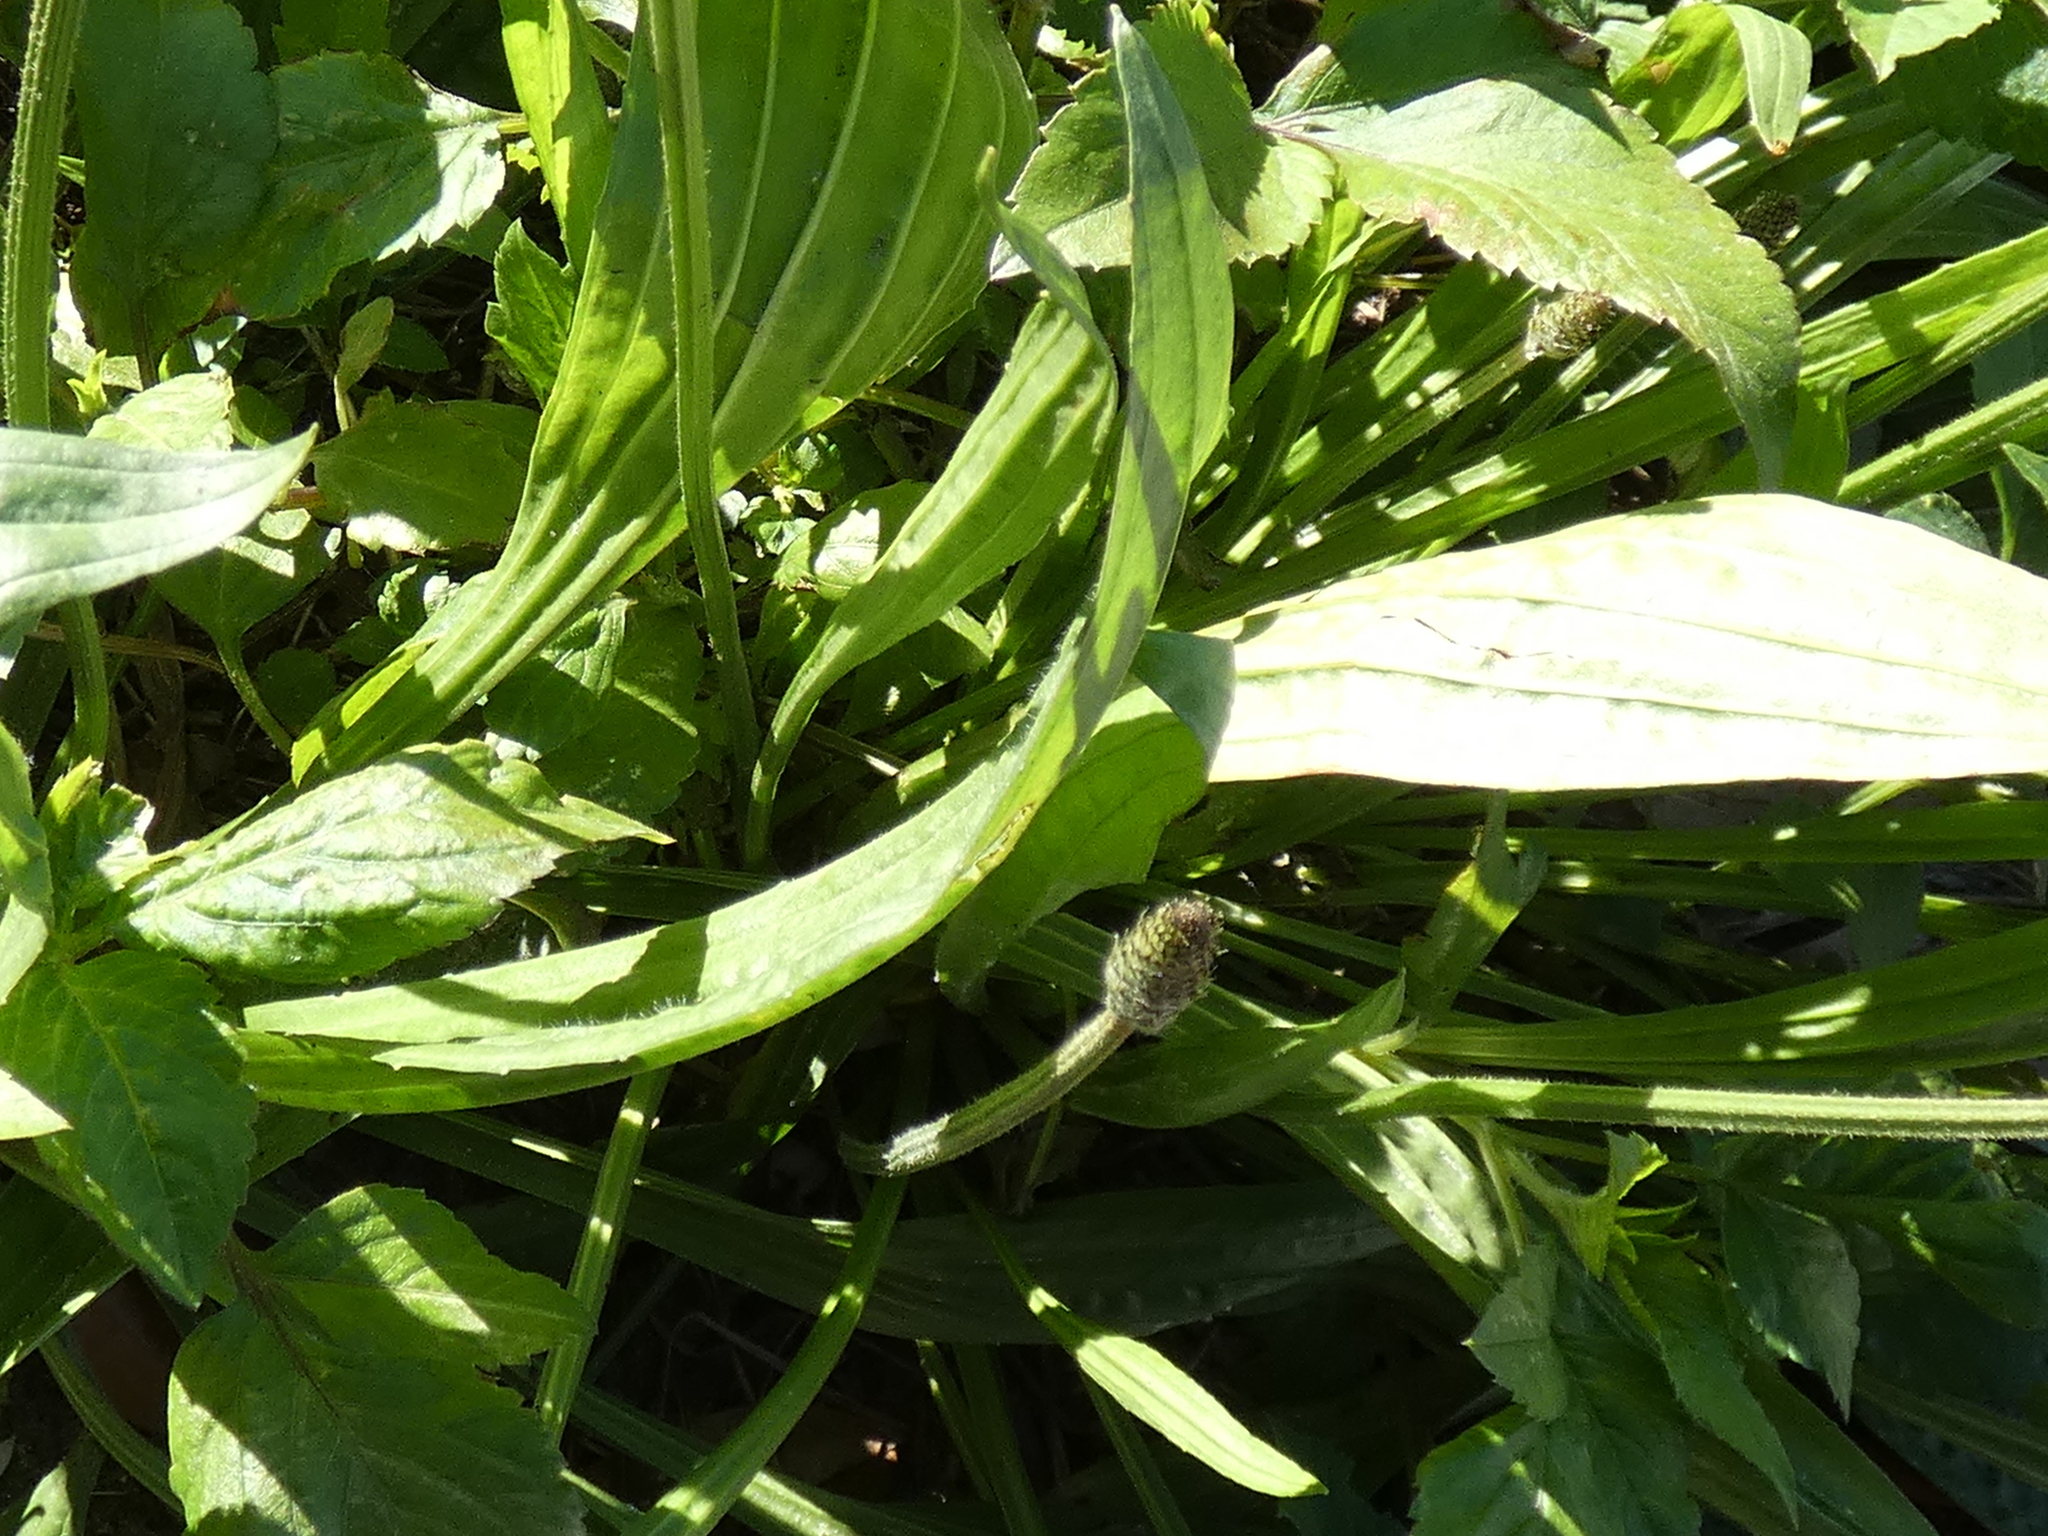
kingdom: Plantae
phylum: Tracheophyta
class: Magnoliopsida
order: Lamiales
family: Plantaginaceae
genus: Plantago
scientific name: Plantago lanceolata
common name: Ribwort plantain
